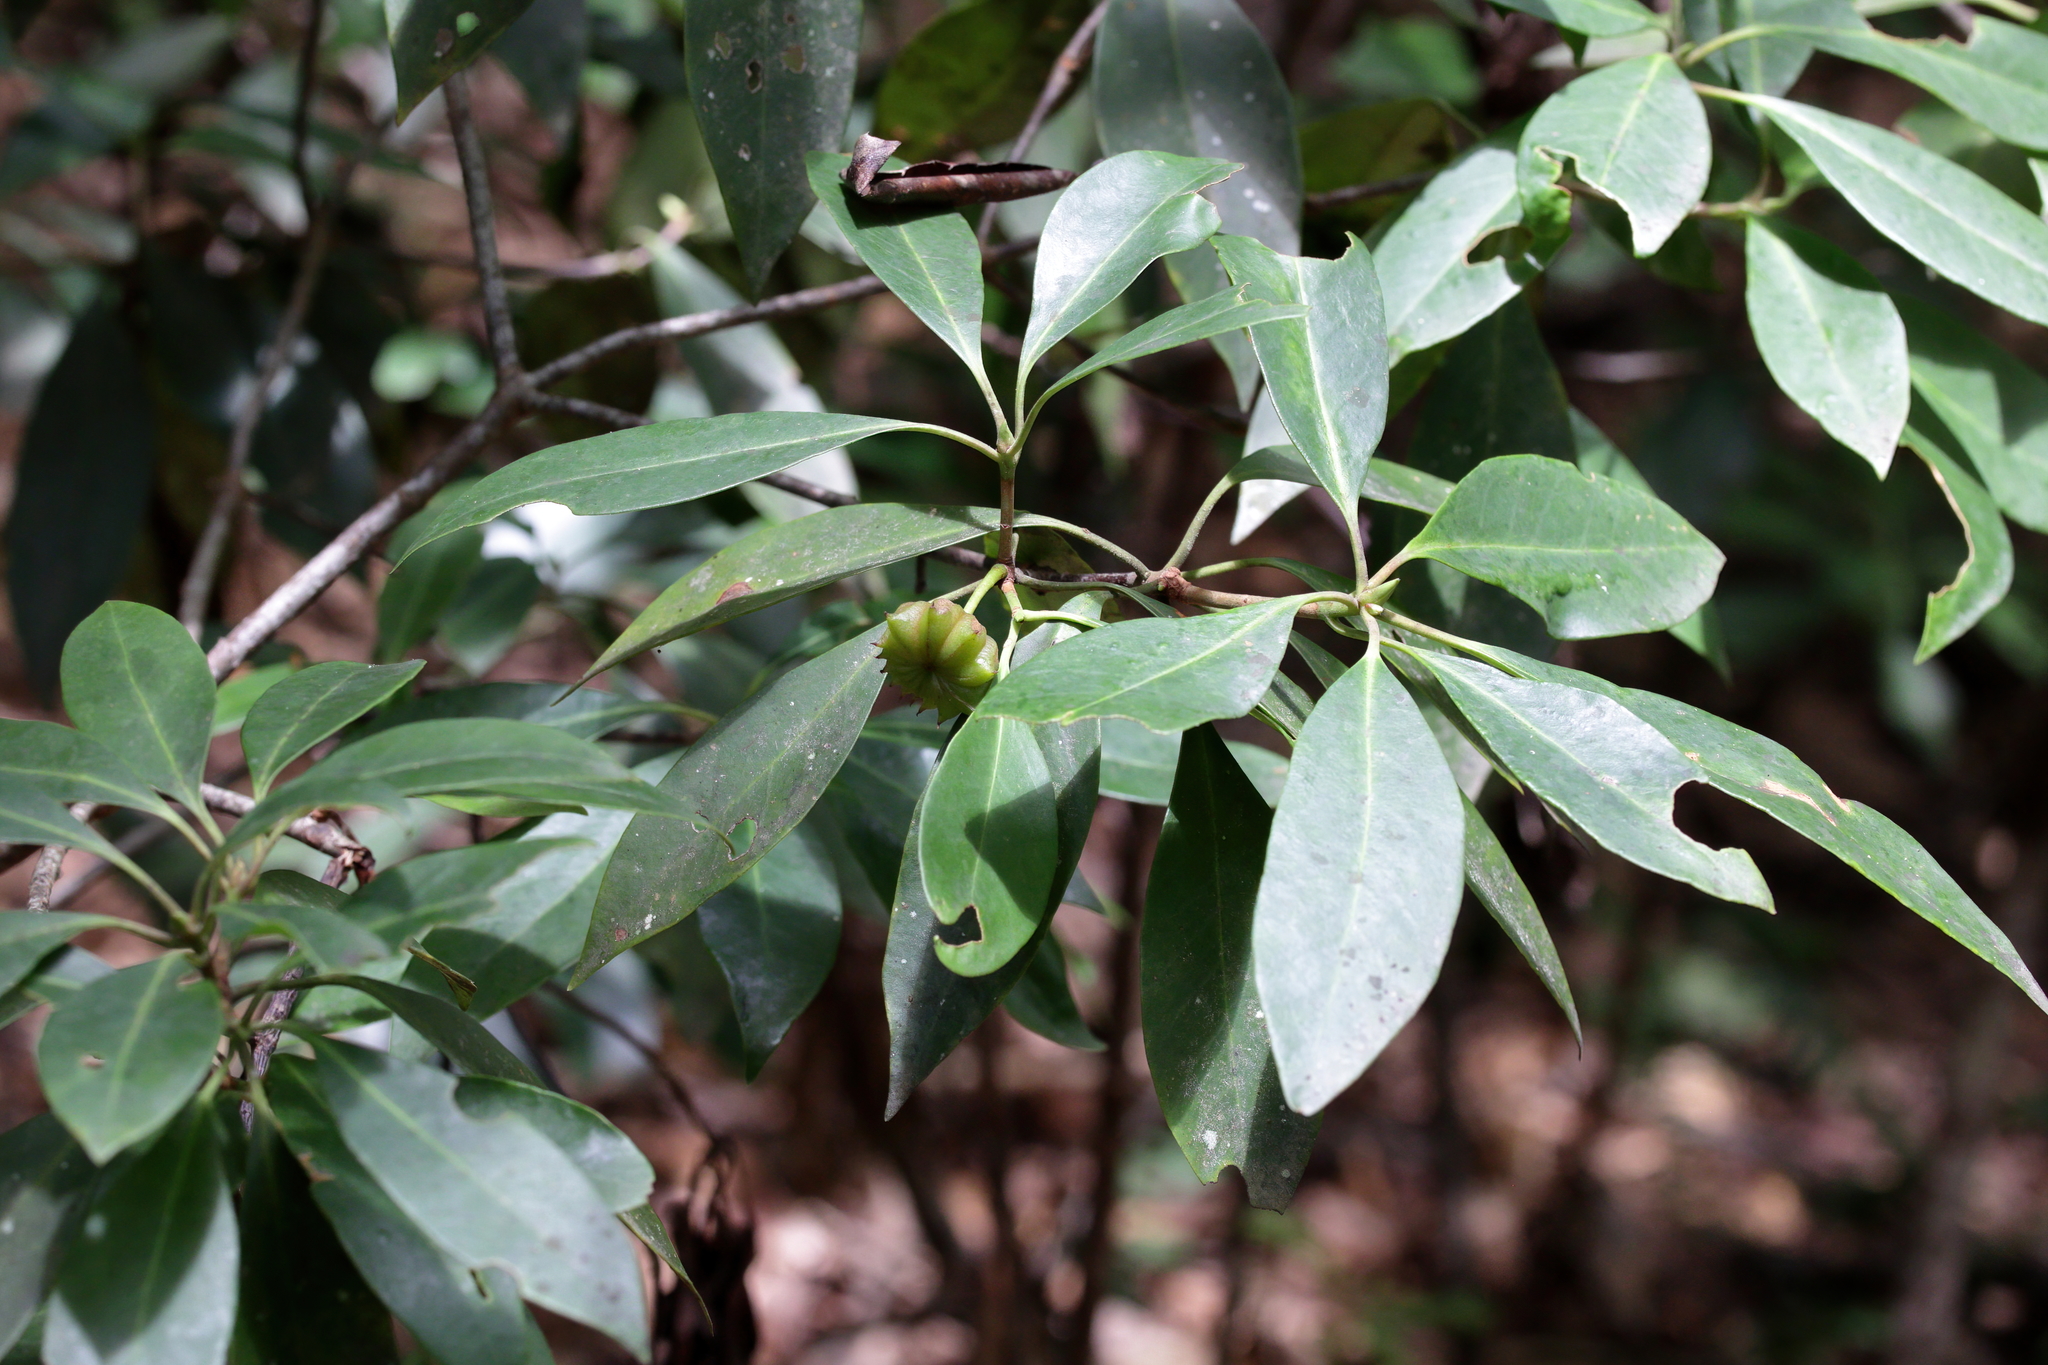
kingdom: Plantae
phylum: Tracheophyta
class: Magnoliopsida
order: Austrobaileyales
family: Schisandraceae
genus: Illicium
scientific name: Illicium floridanum
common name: Florida anisetree
